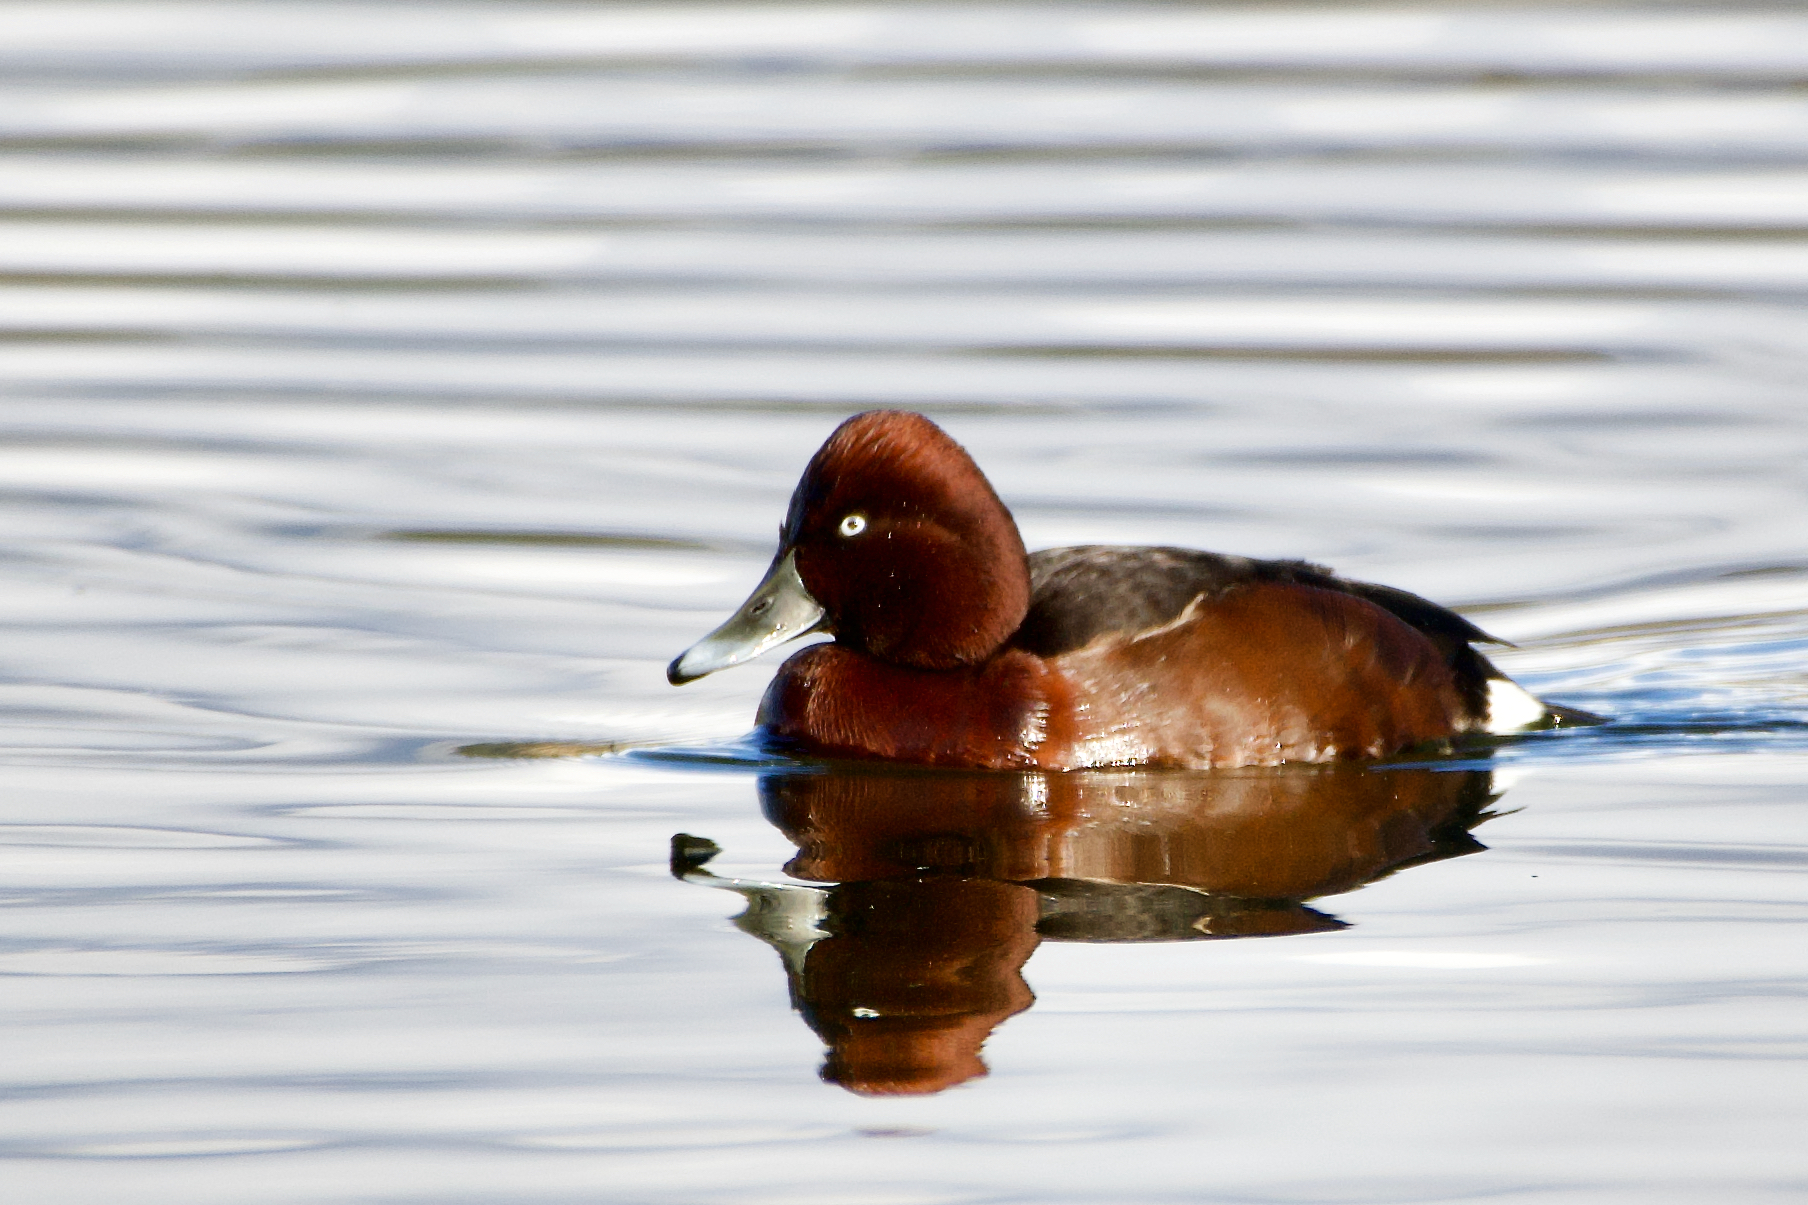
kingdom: Animalia
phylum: Chordata
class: Aves
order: Anseriformes
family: Anatidae
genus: Aythya
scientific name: Aythya nyroca
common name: Ferruginous duck
